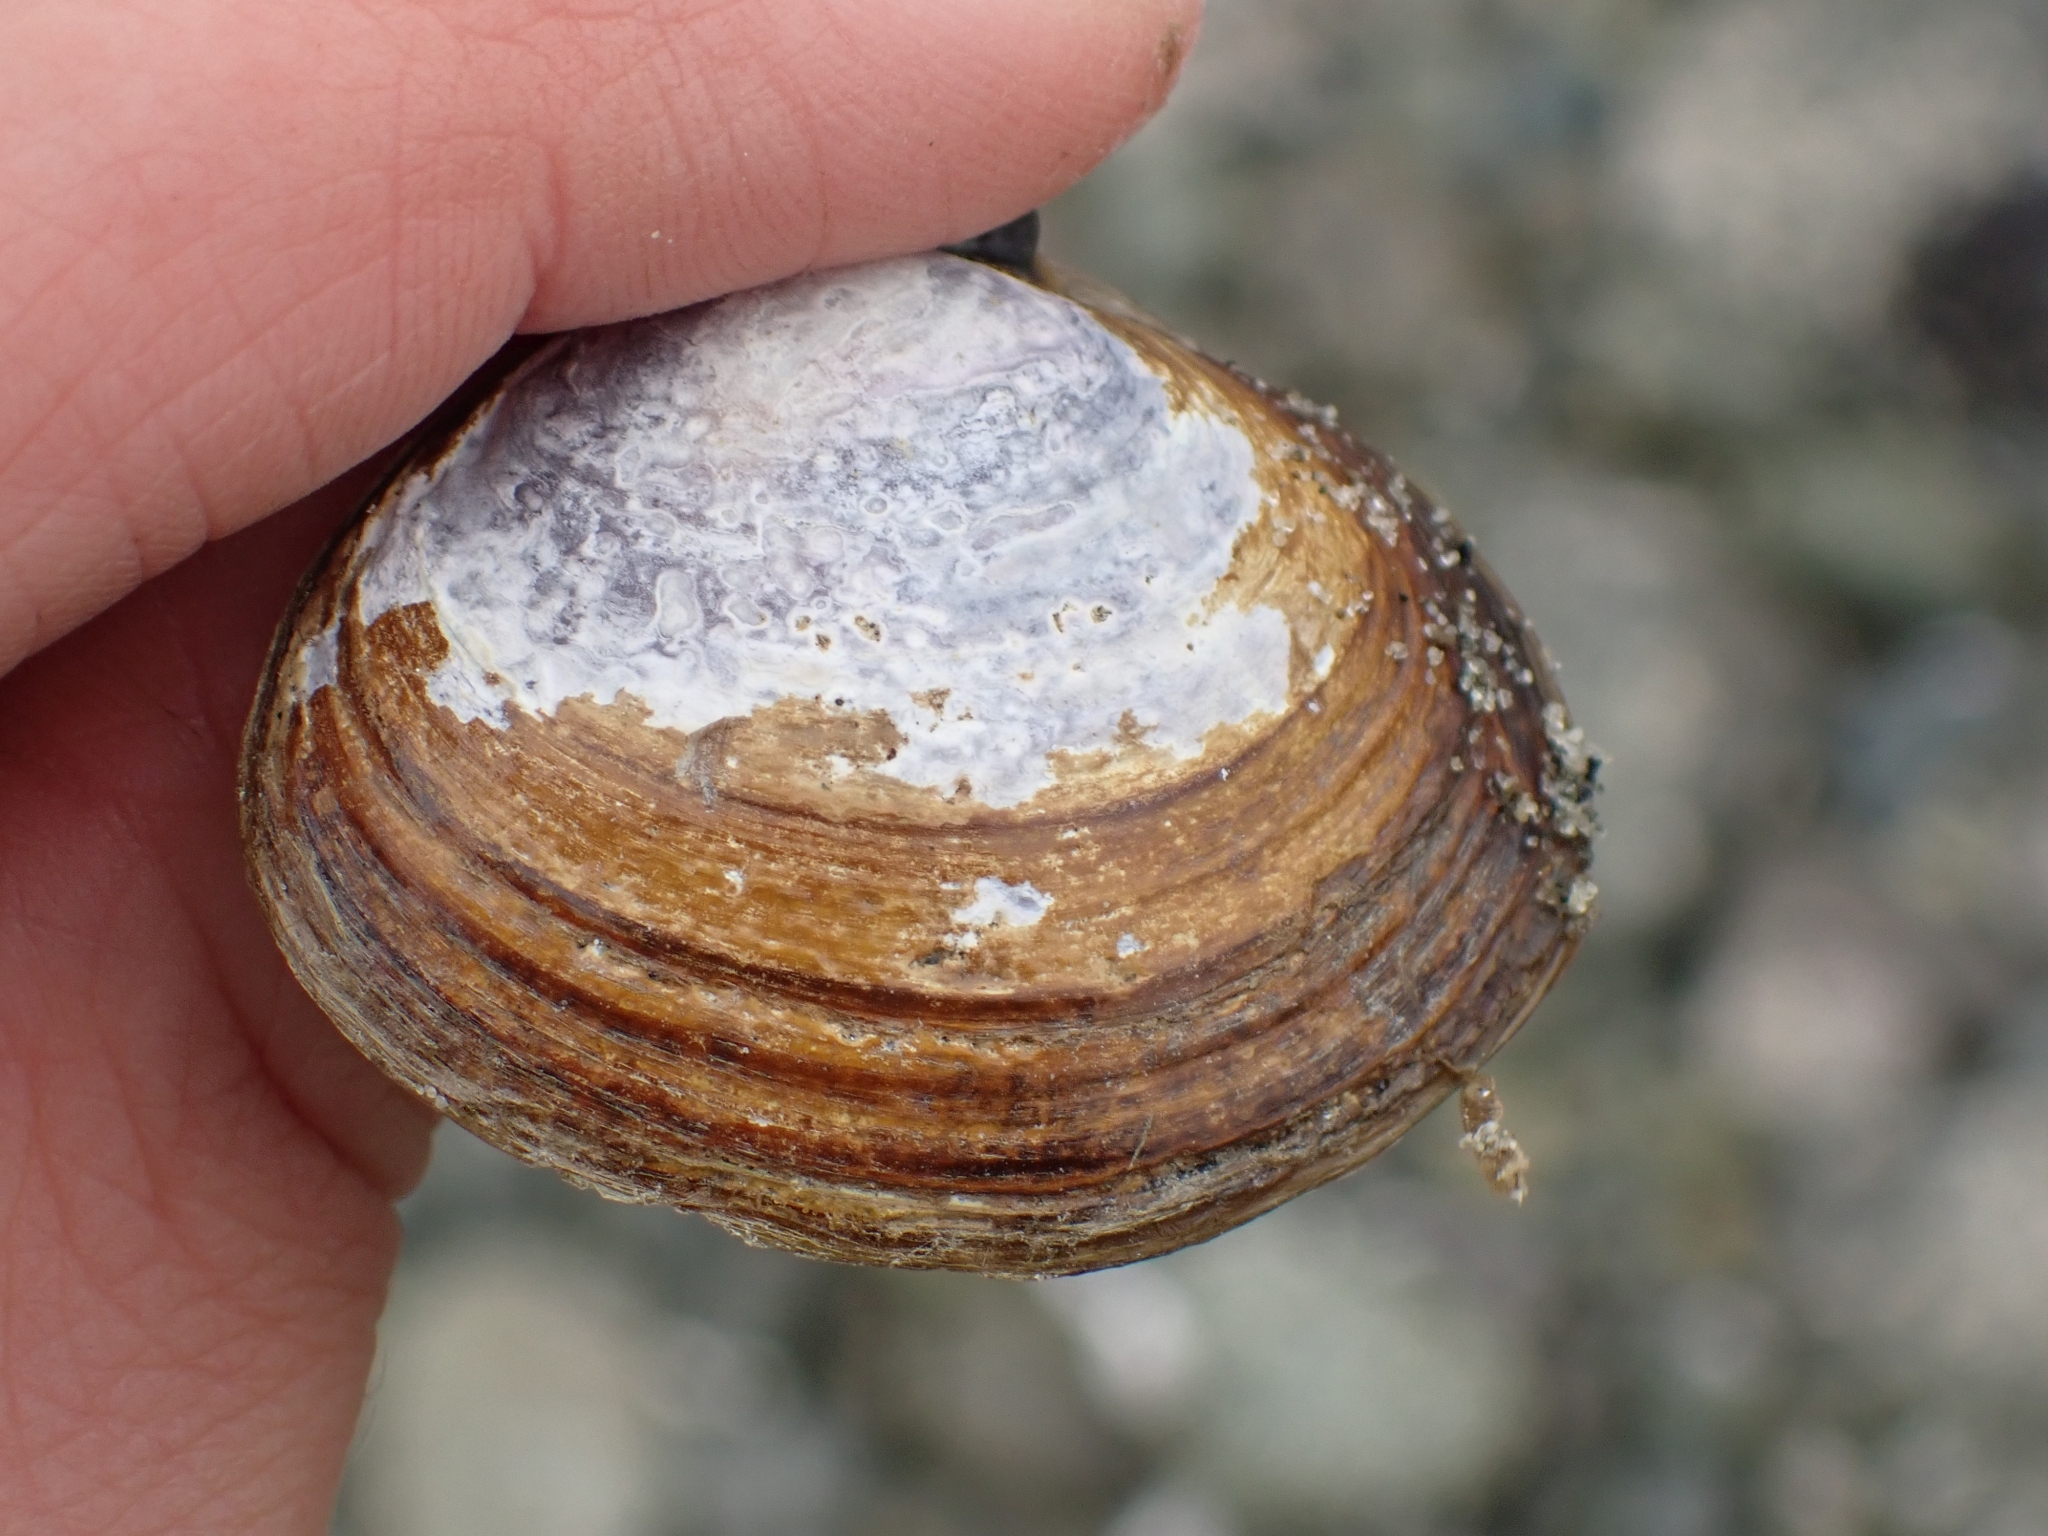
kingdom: Animalia
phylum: Mollusca
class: Bivalvia
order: Cardiida
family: Psammobiidae
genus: Nuttallia
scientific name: Nuttallia obscurata
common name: Purple mahogany-clam
